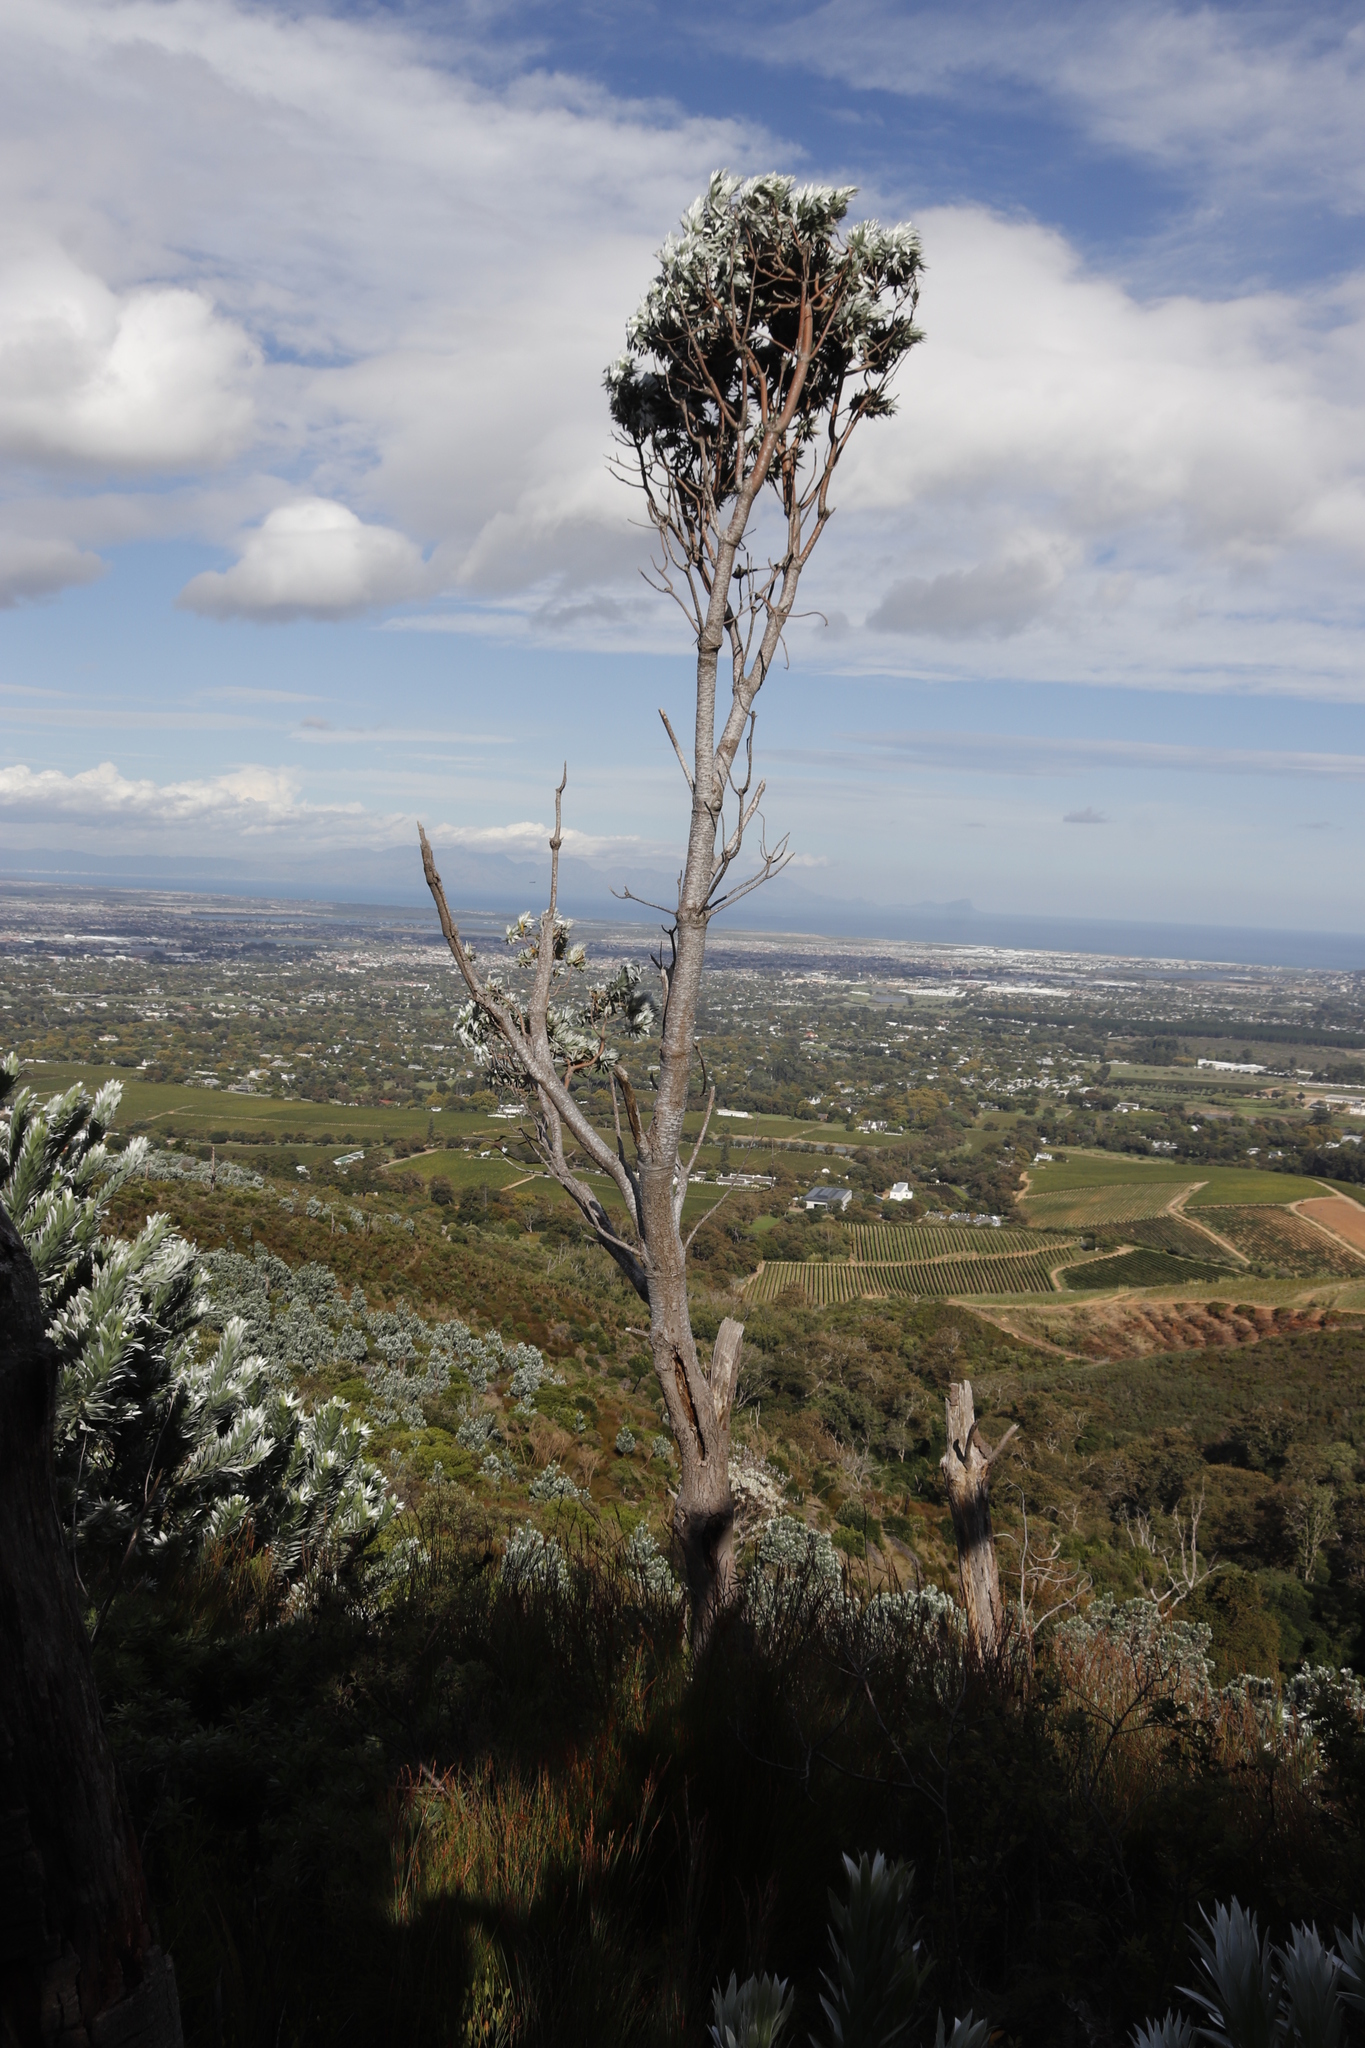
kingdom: Plantae
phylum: Tracheophyta
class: Magnoliopsida
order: Proteales
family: Proteaceae
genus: Leucadendron
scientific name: Leucadendron argenteum
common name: Cape silver tree
